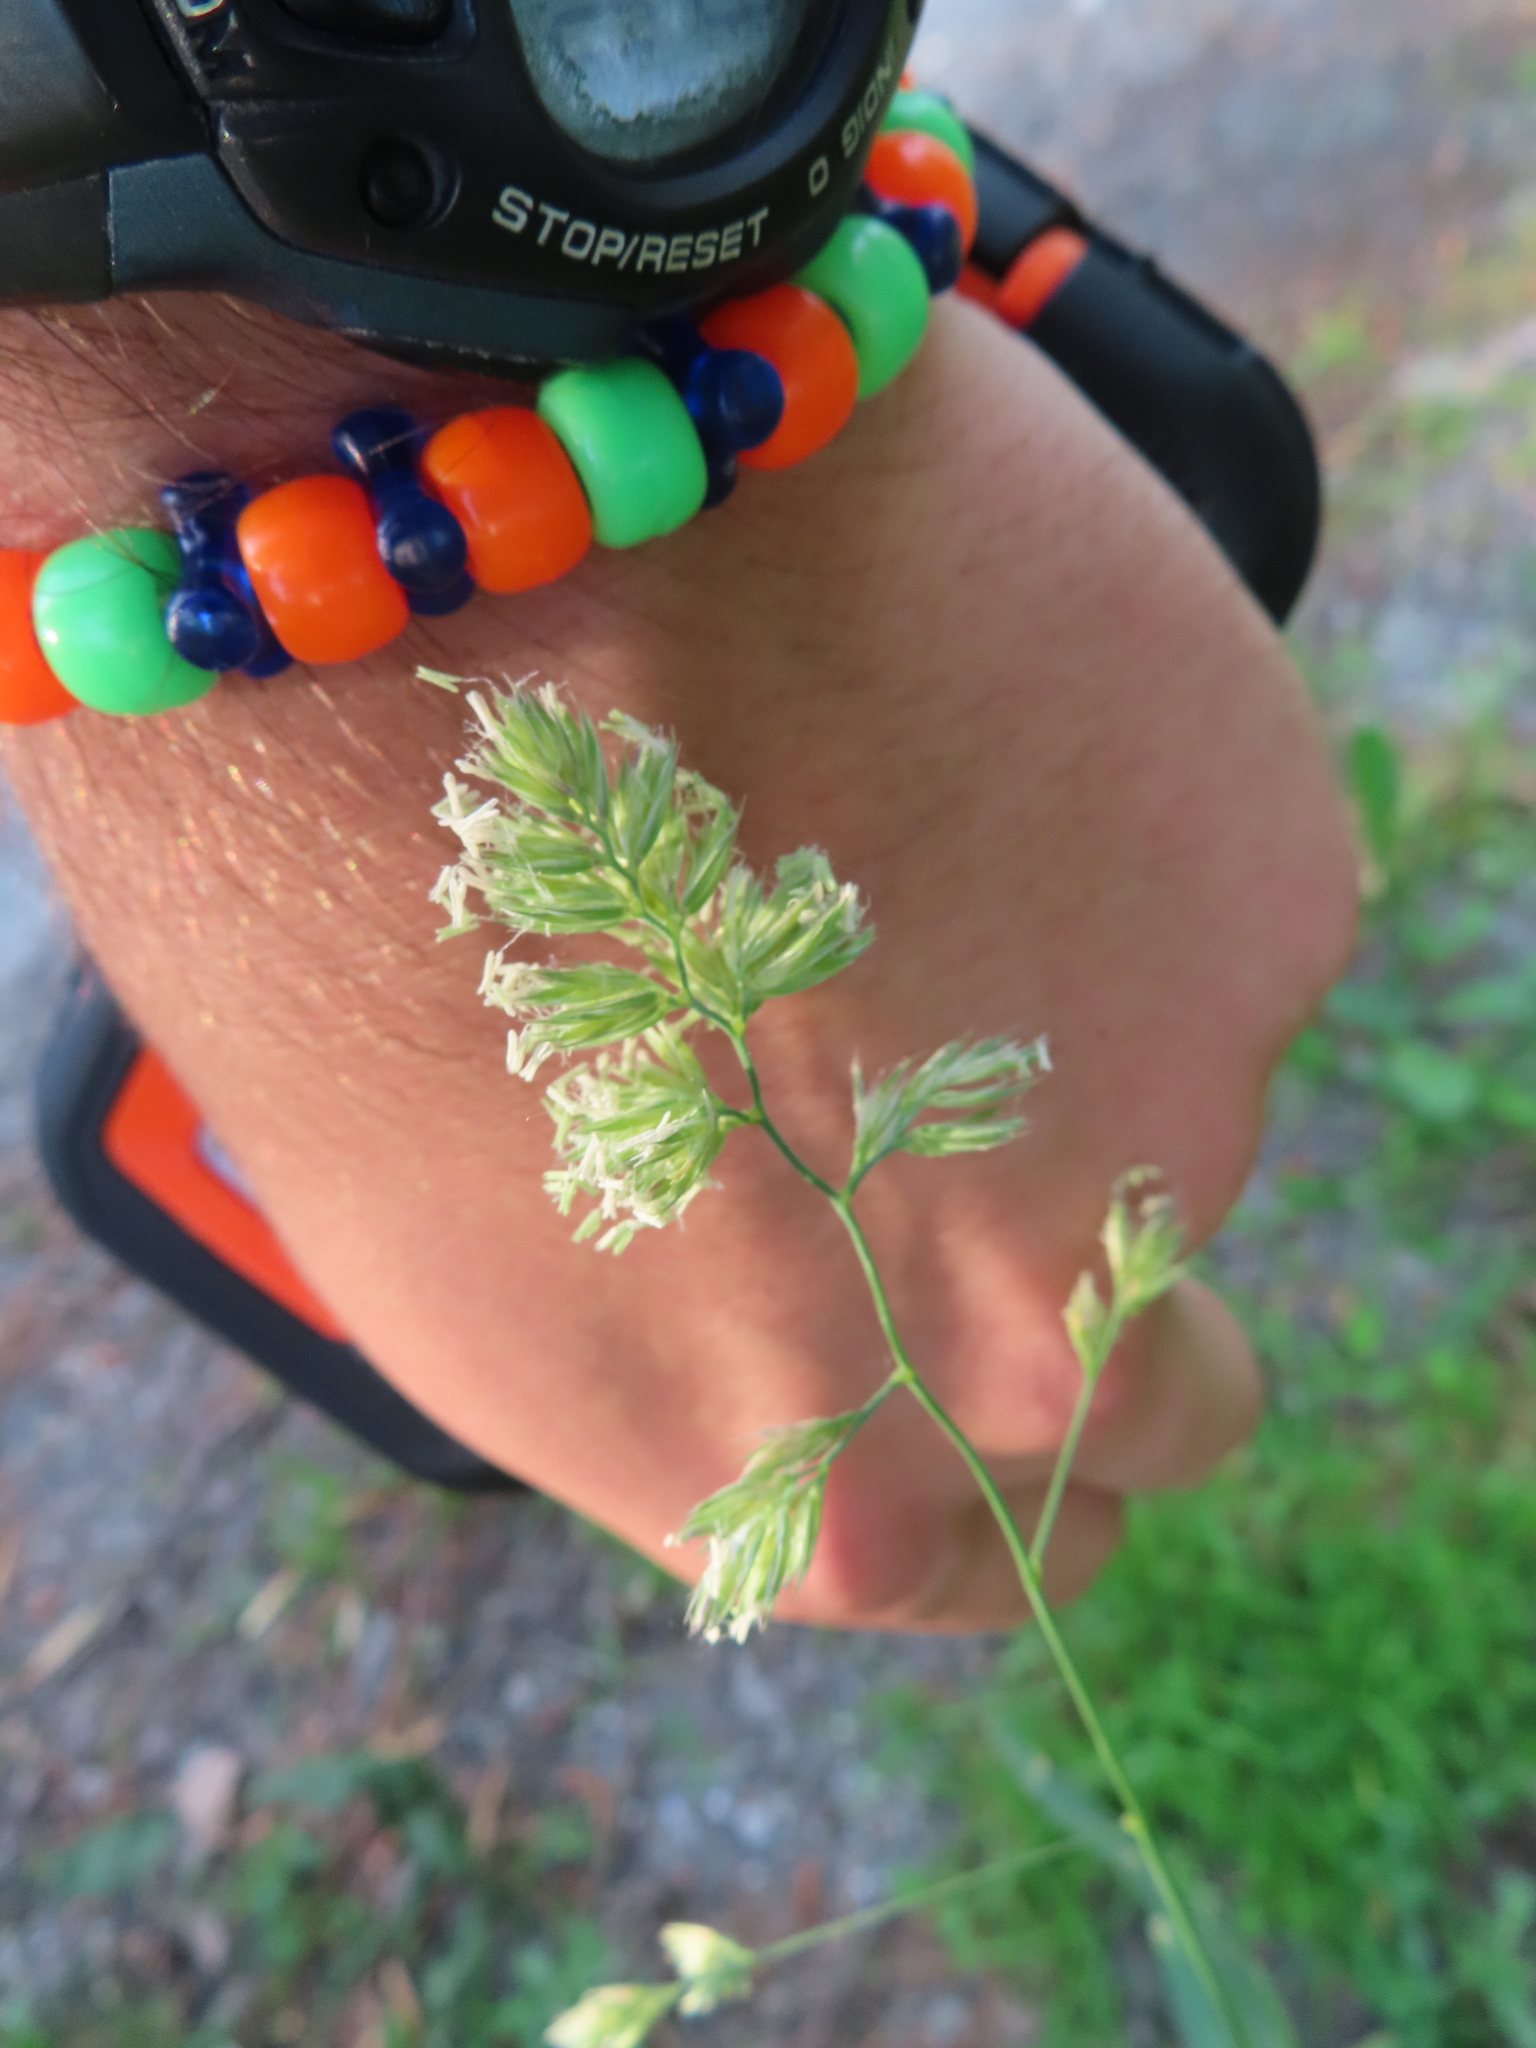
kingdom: Plantae
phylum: Tracheophyta
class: Liliopsida
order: Poales
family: Poaceae
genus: Dactylis
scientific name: Dactylis glomerata
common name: Orchardgrass
